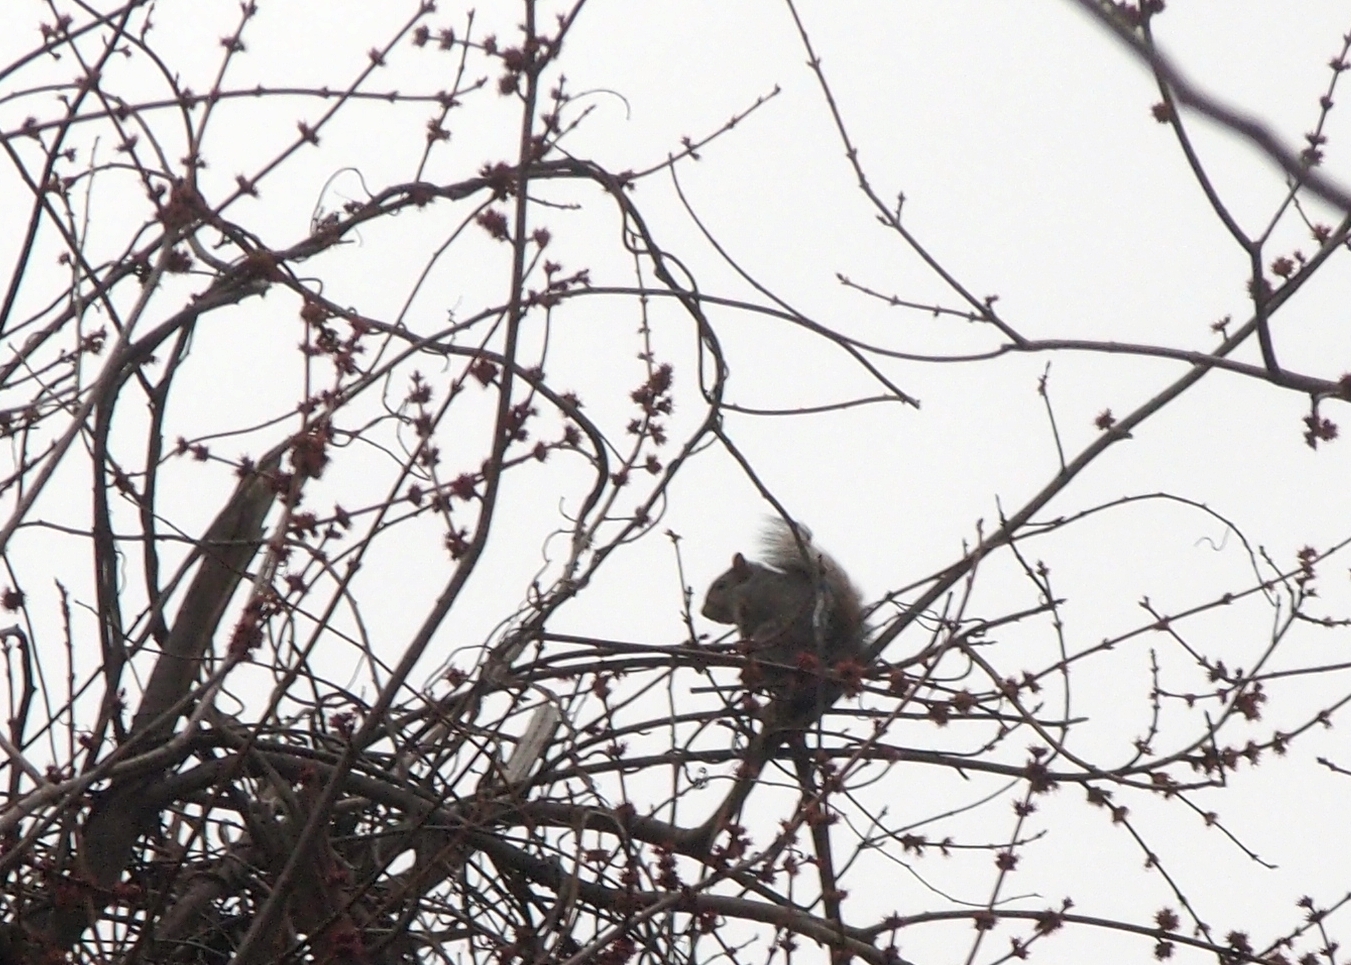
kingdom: Animalia
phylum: Chordata
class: Mammalia
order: Rodentia
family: Sciuridae
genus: Sciurus
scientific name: Sciurus carolinensis
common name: Eastern gray squirrel
